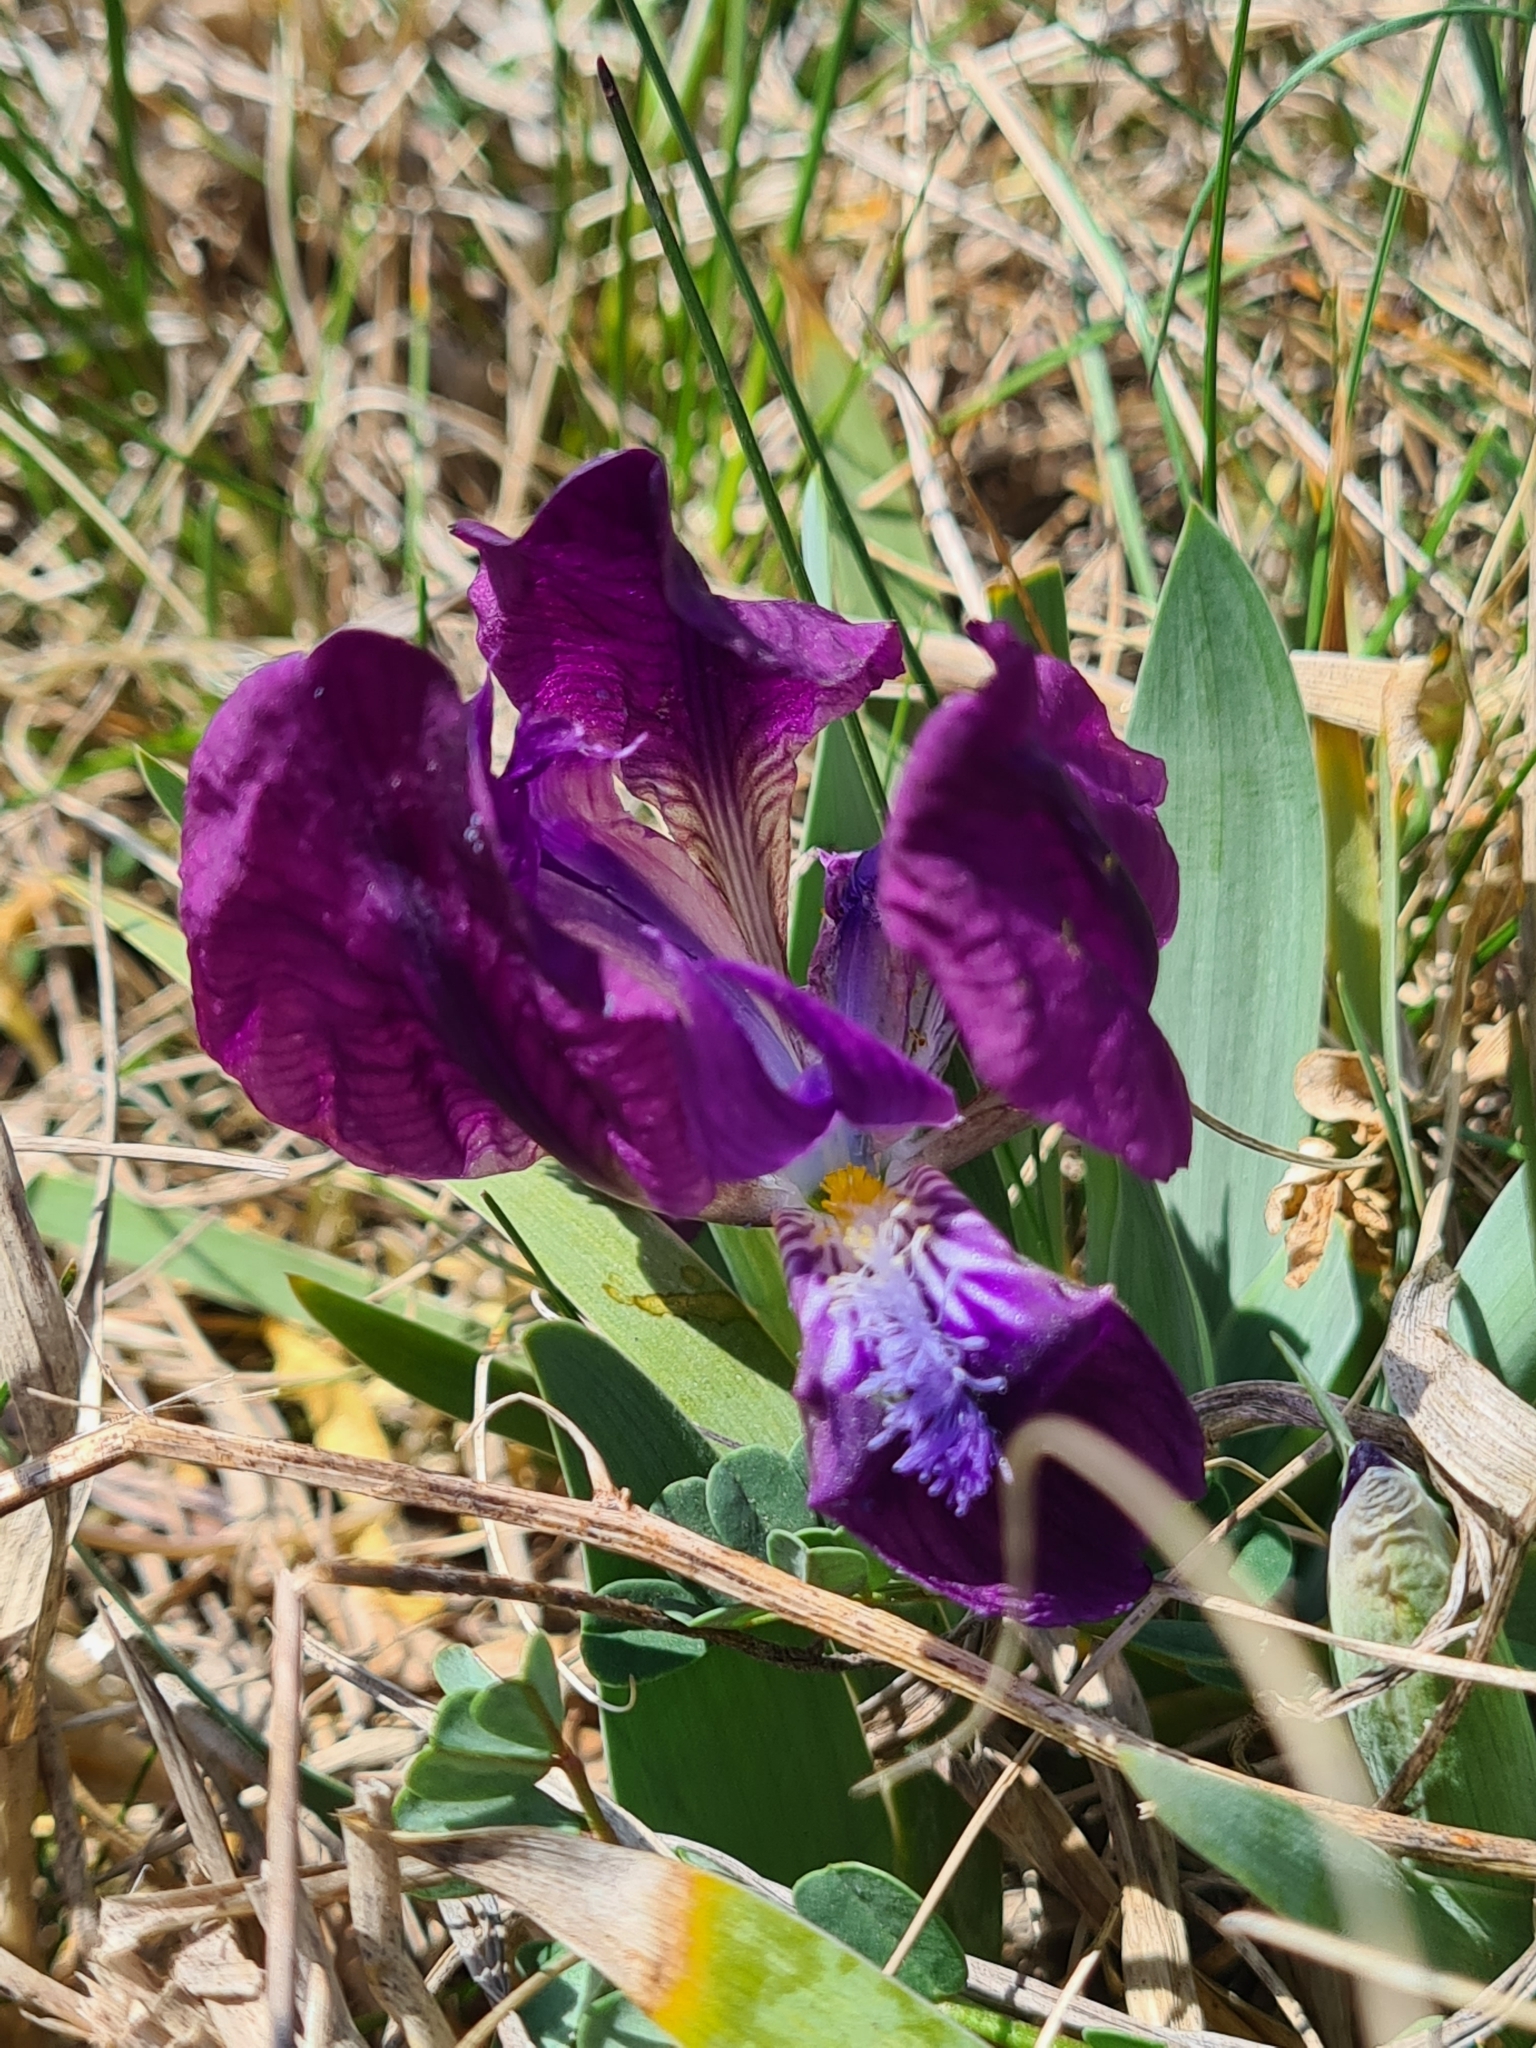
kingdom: Plantae
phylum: Tracheophyta
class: Liliopsida
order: Asparagales
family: Iridaceae
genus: Iris
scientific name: Iris pumila
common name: Dwarf iris
